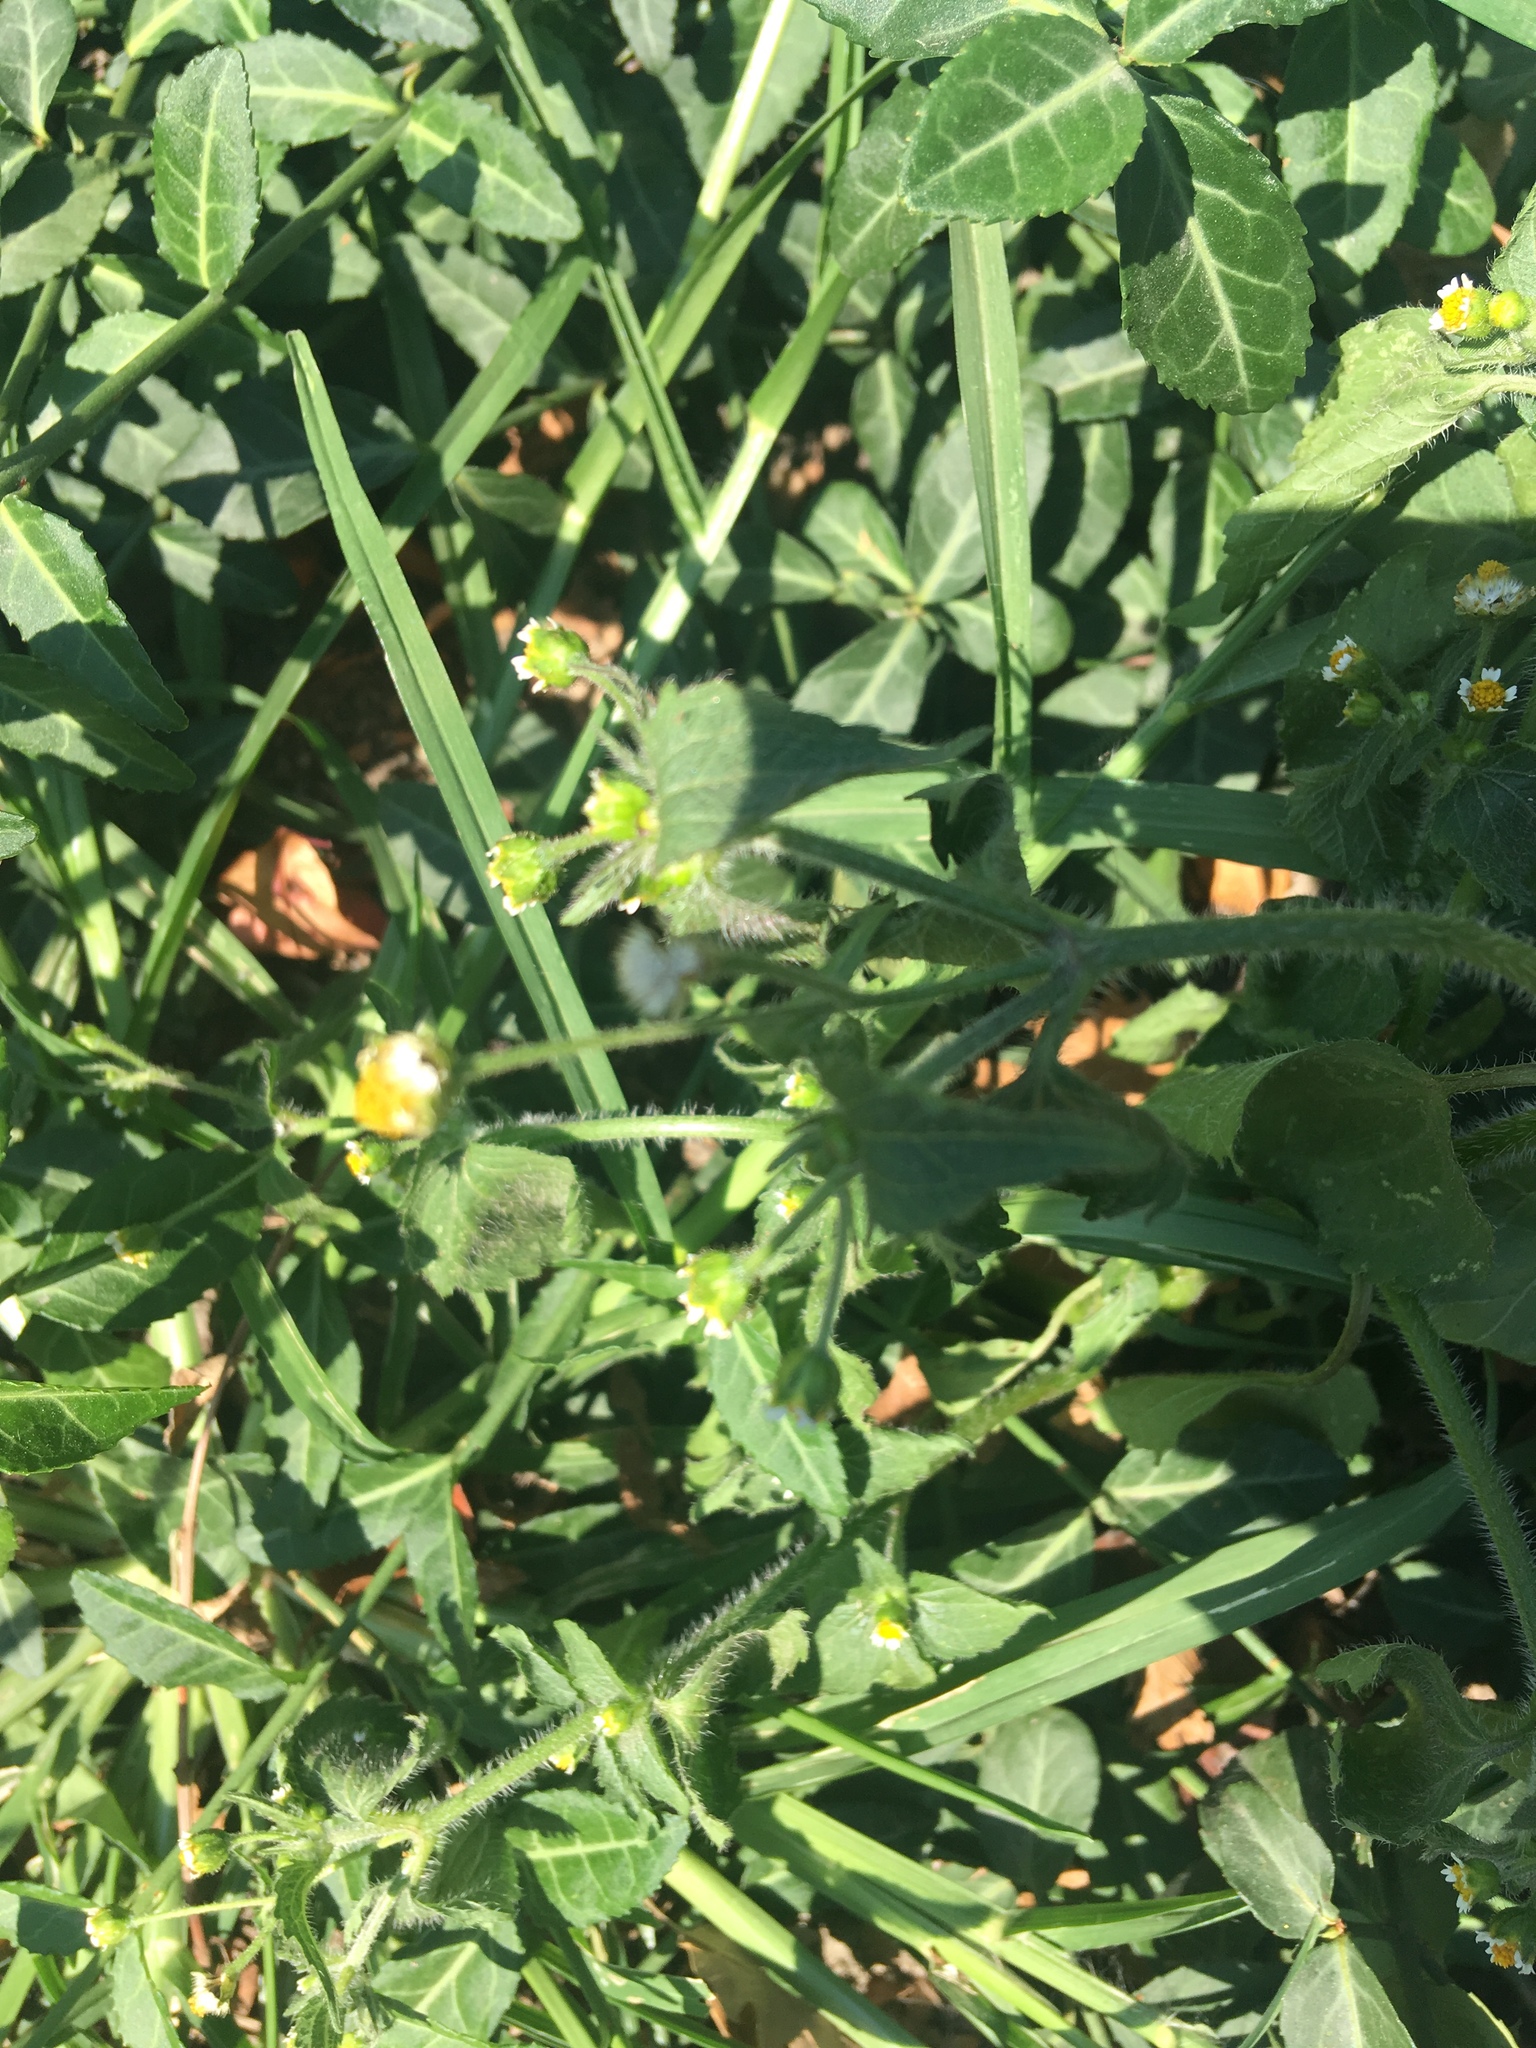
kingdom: Plantae
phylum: Tracheophyta
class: Magnoliopsida
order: Asterales
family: Asteraceae
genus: Galinsoga
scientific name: Galinsoga quadriradiata
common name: Shaggy soldier
